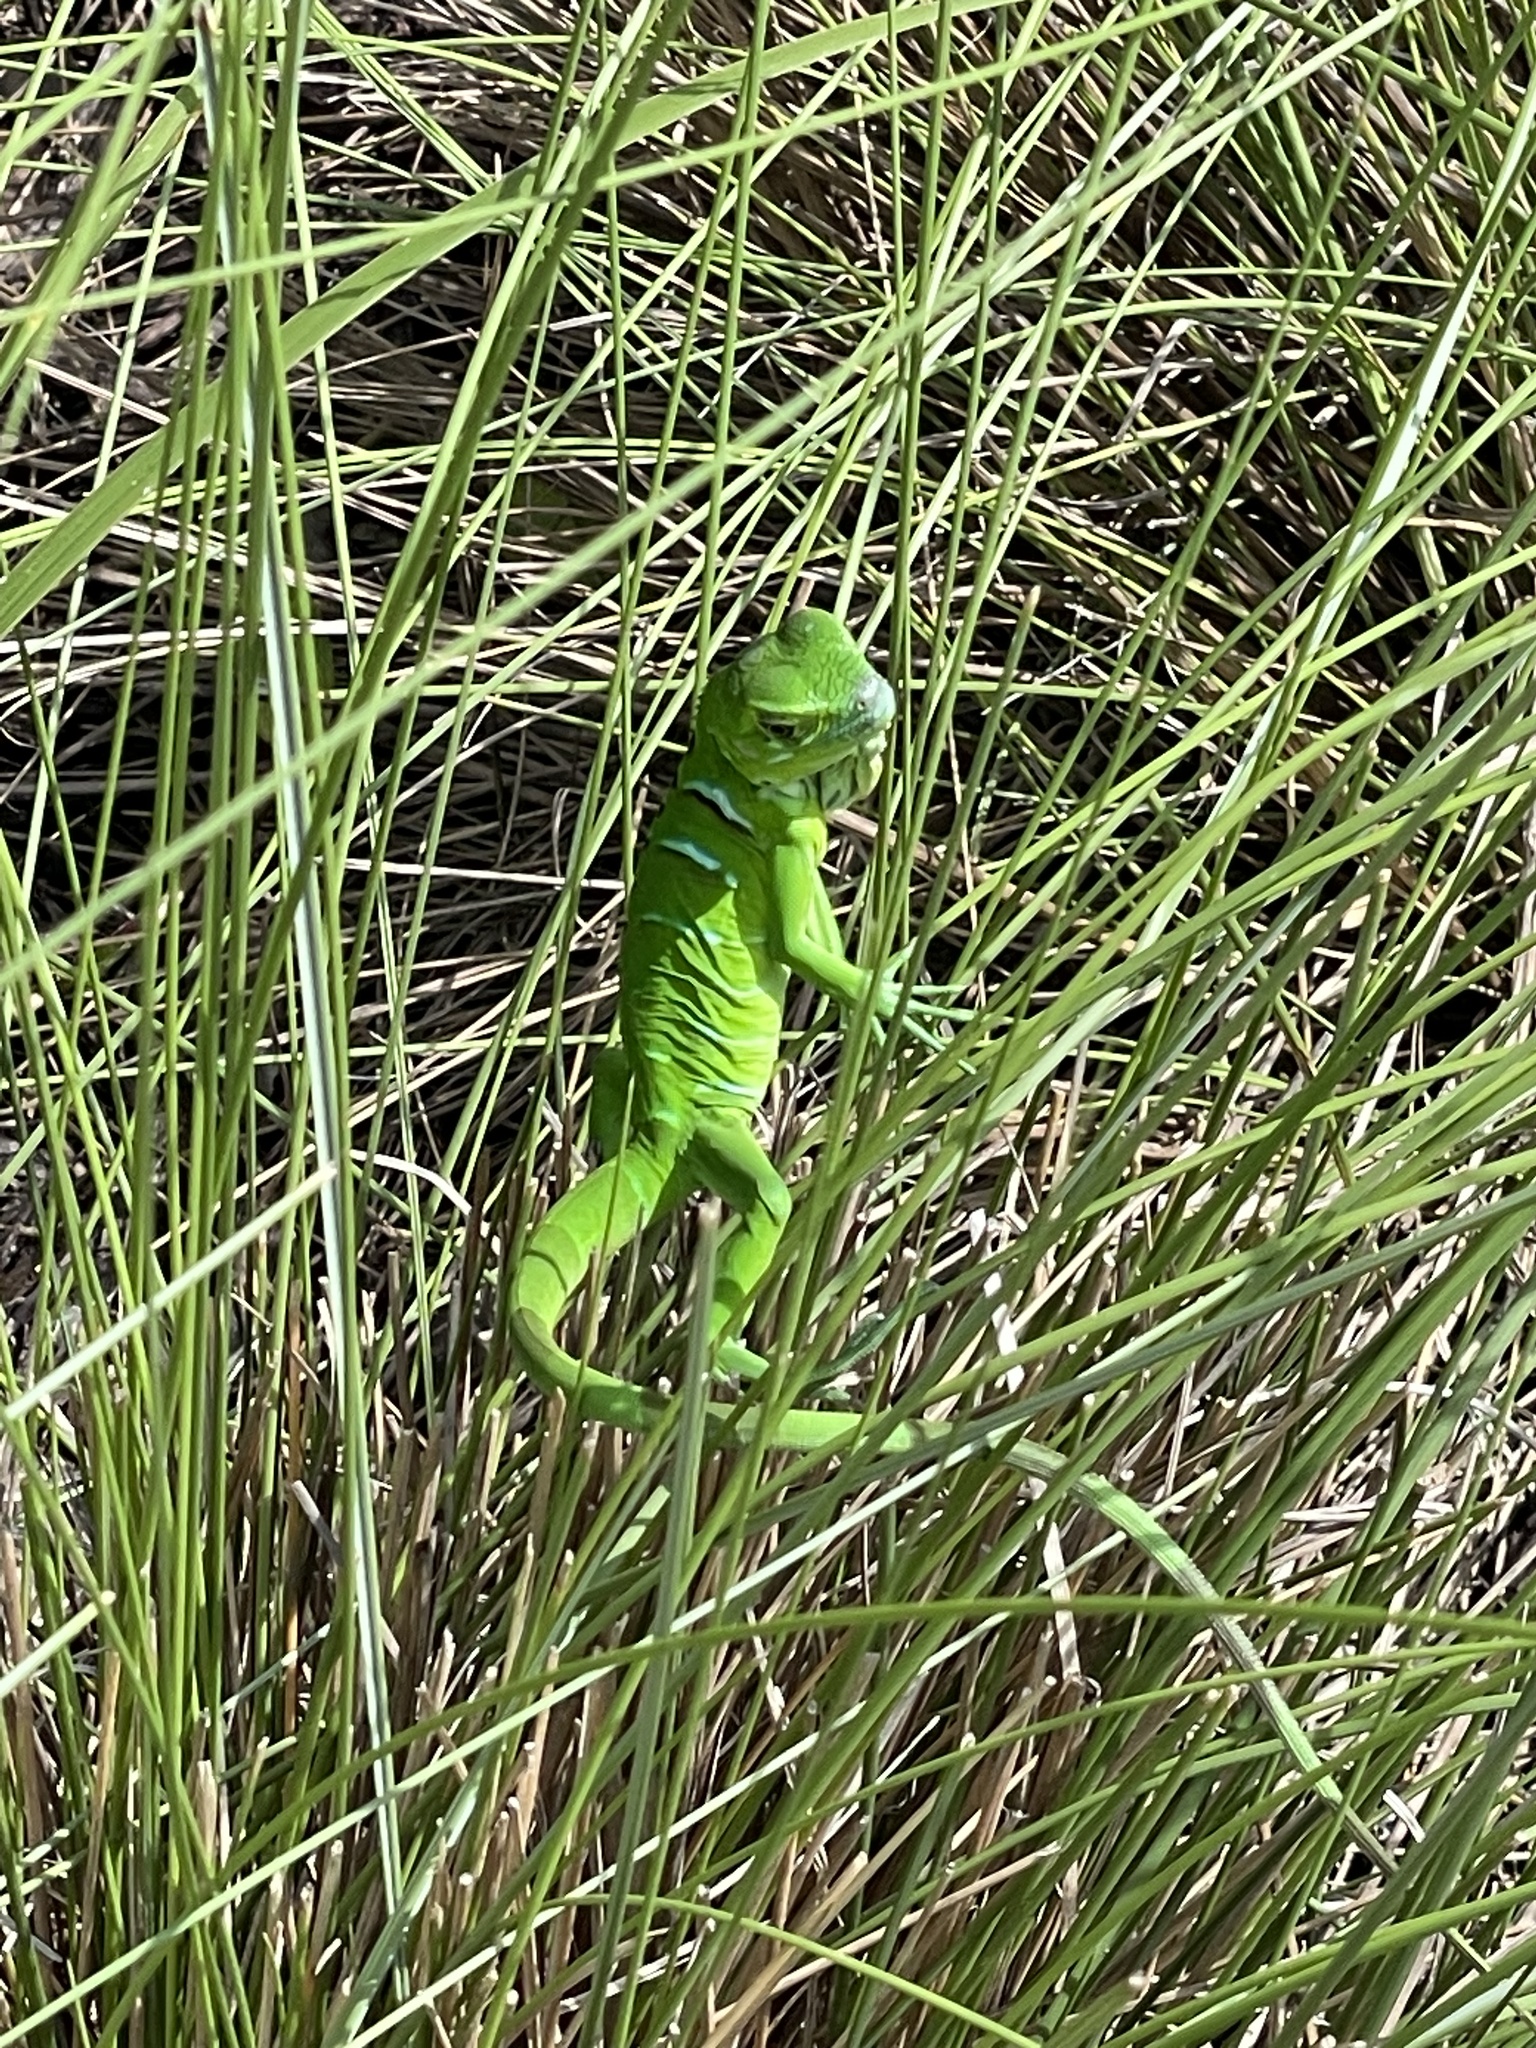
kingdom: Animalia
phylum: Chordata
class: Squamata
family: Iguanidae
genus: Iguana
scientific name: Iguana iguana
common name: Green iguana
